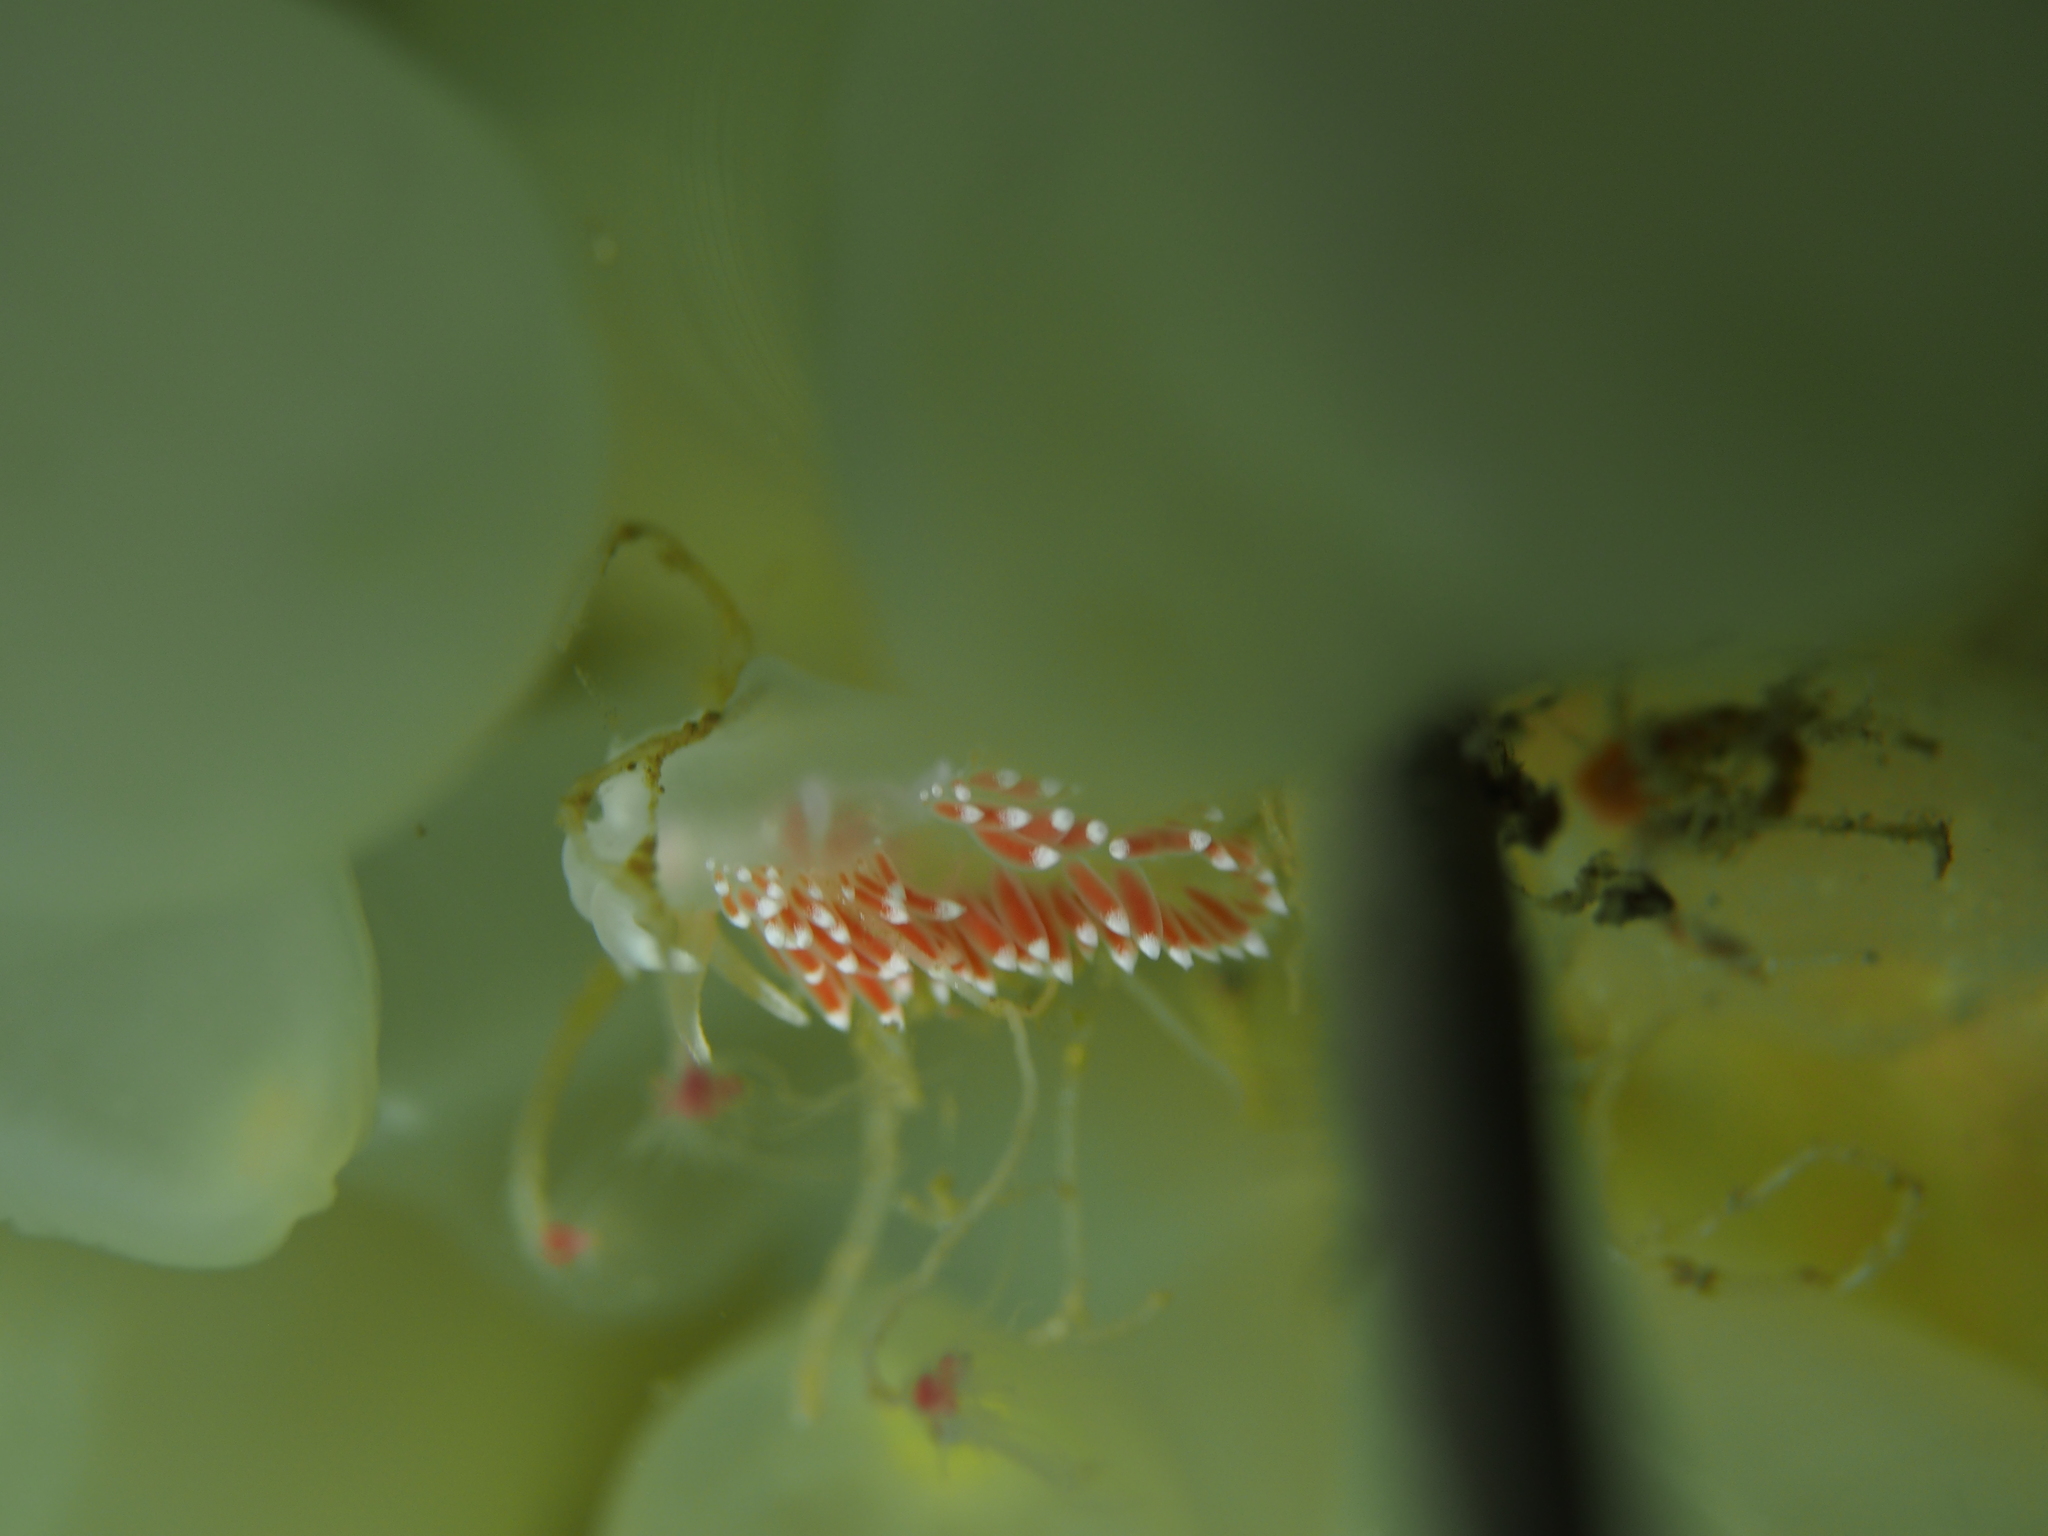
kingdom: Animalia
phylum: Mollusca
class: Gastropoda
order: Nudibranchia
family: Coryphellidae
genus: Coryphella
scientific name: Coryphella verrucosa
